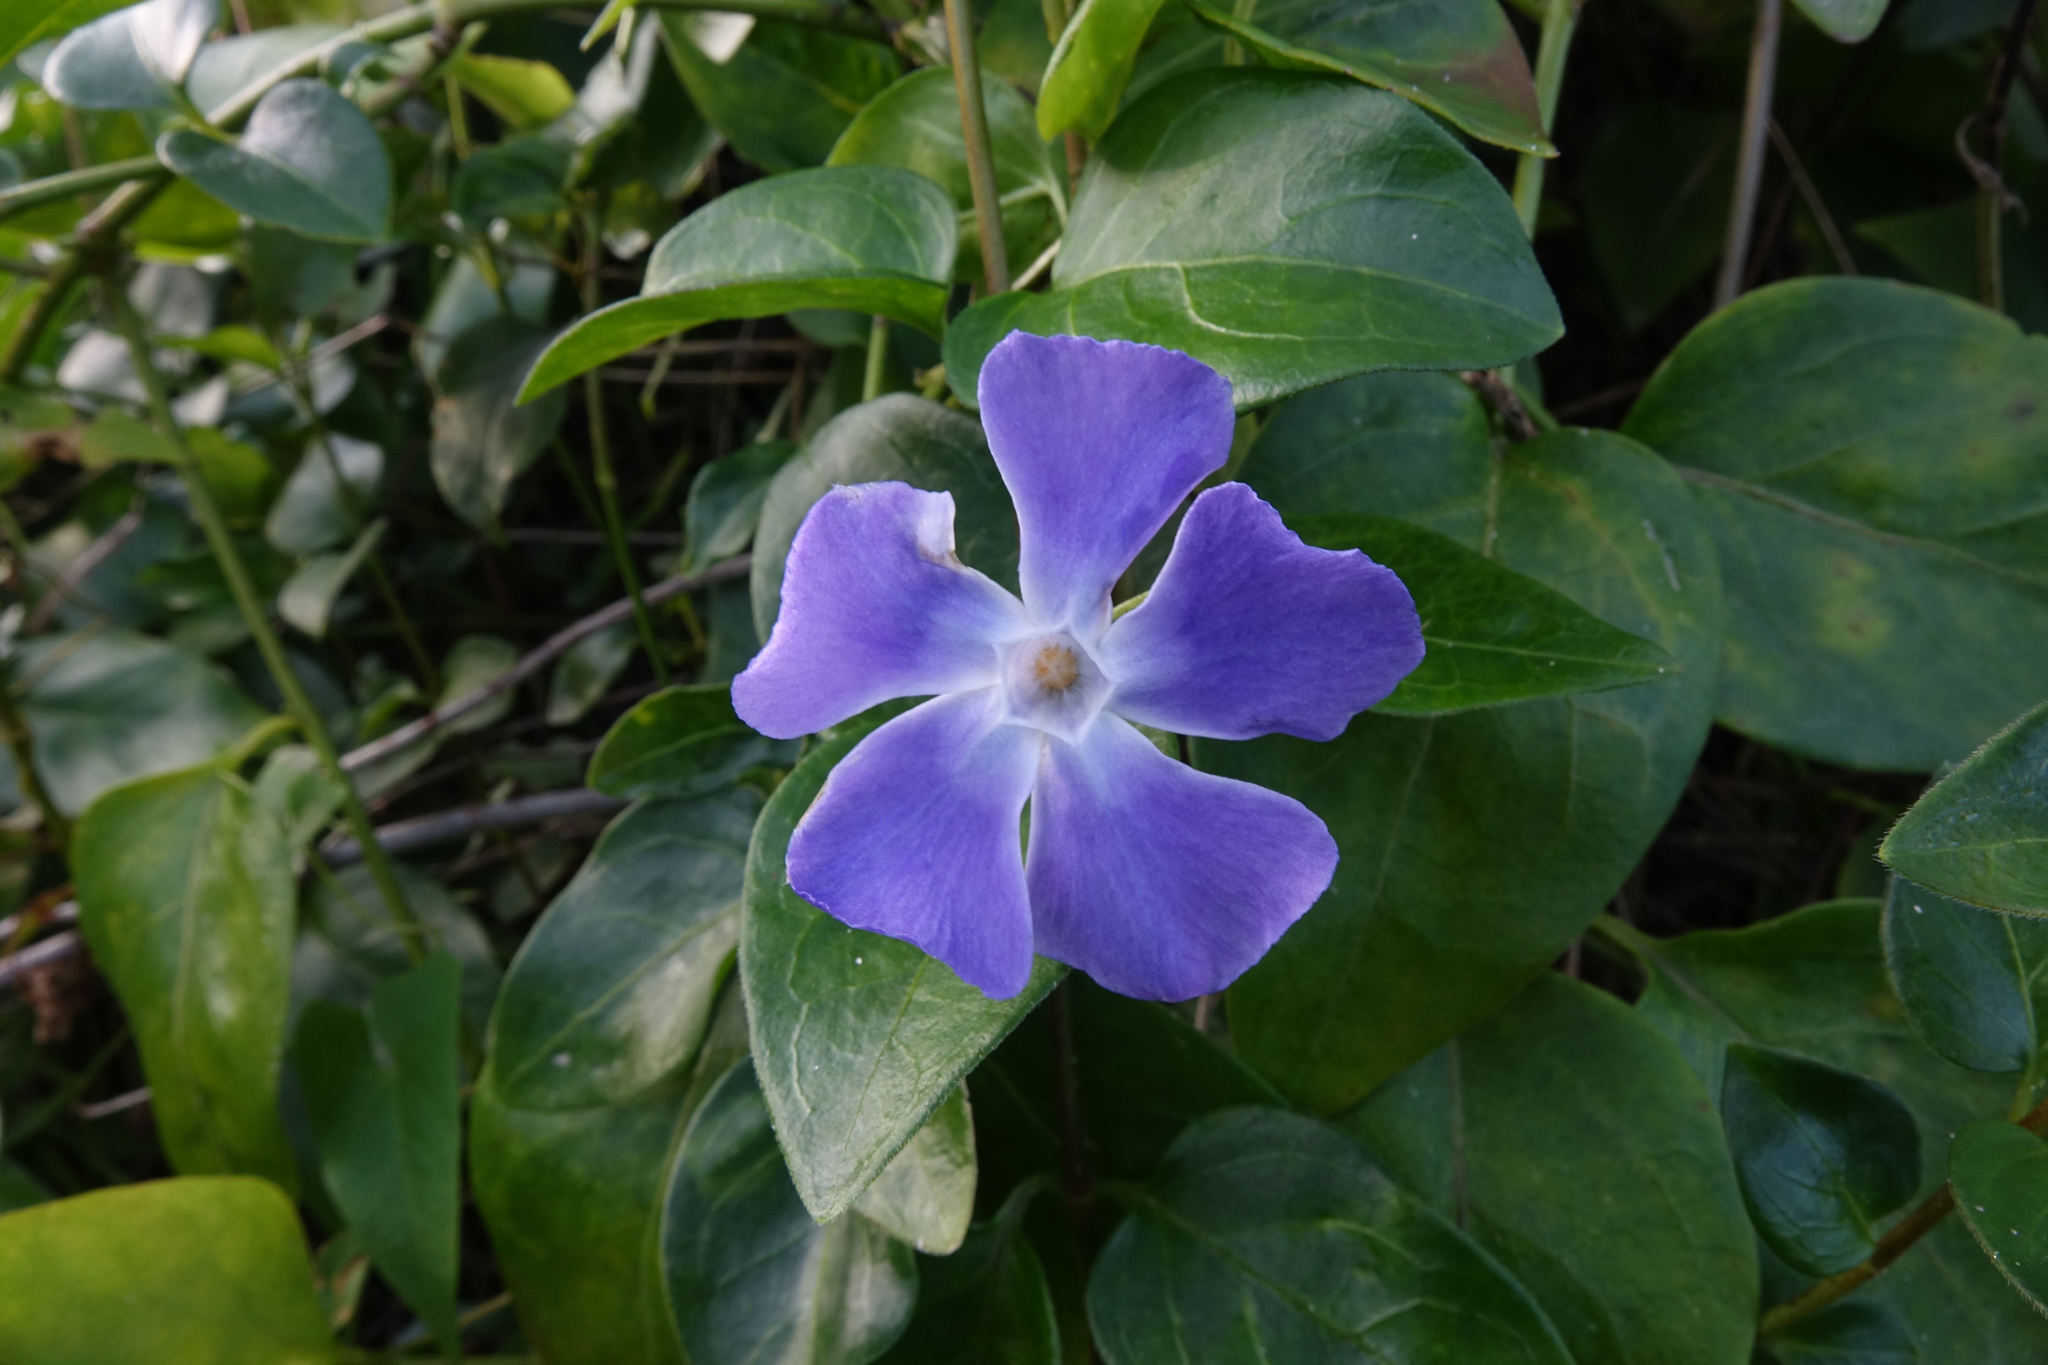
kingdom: Plantae
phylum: Tracheophyta
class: Magnoliopsida
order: Gentianales
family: Apocynaceae
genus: Vinca
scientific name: Vinca major
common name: Greater periwinkle
